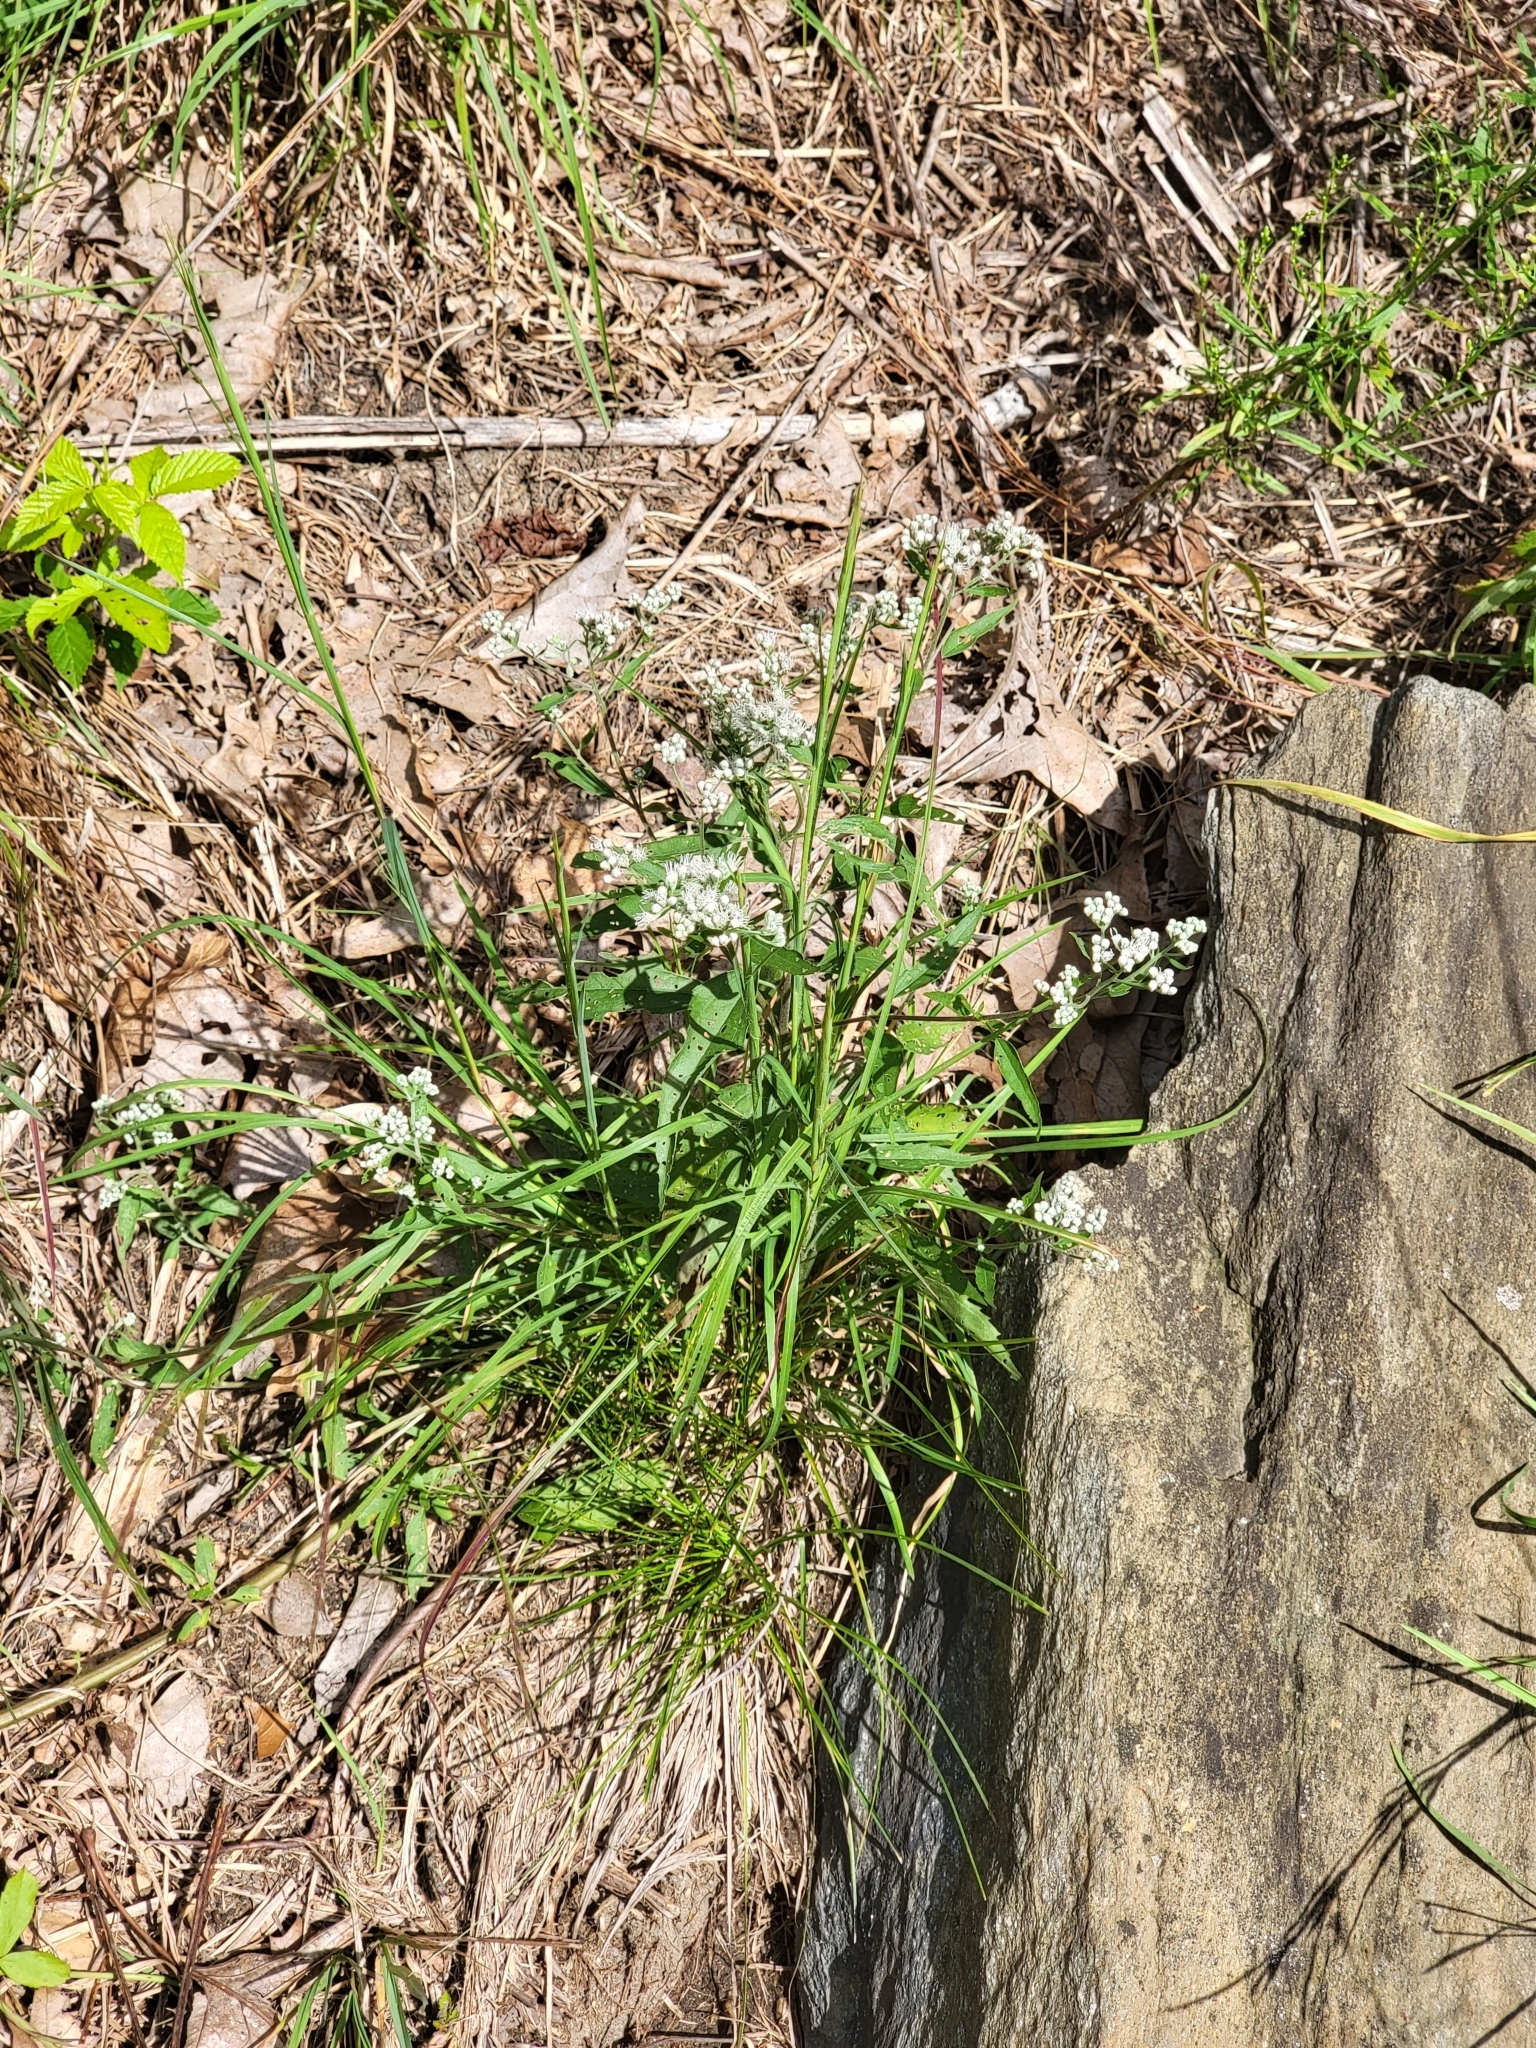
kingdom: Plantae
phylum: Tracheophyta
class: Magnoliopsida
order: Asterales
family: Asteraceae
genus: Eupatorium
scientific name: Eupatorium serotinum
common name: Late boneset
